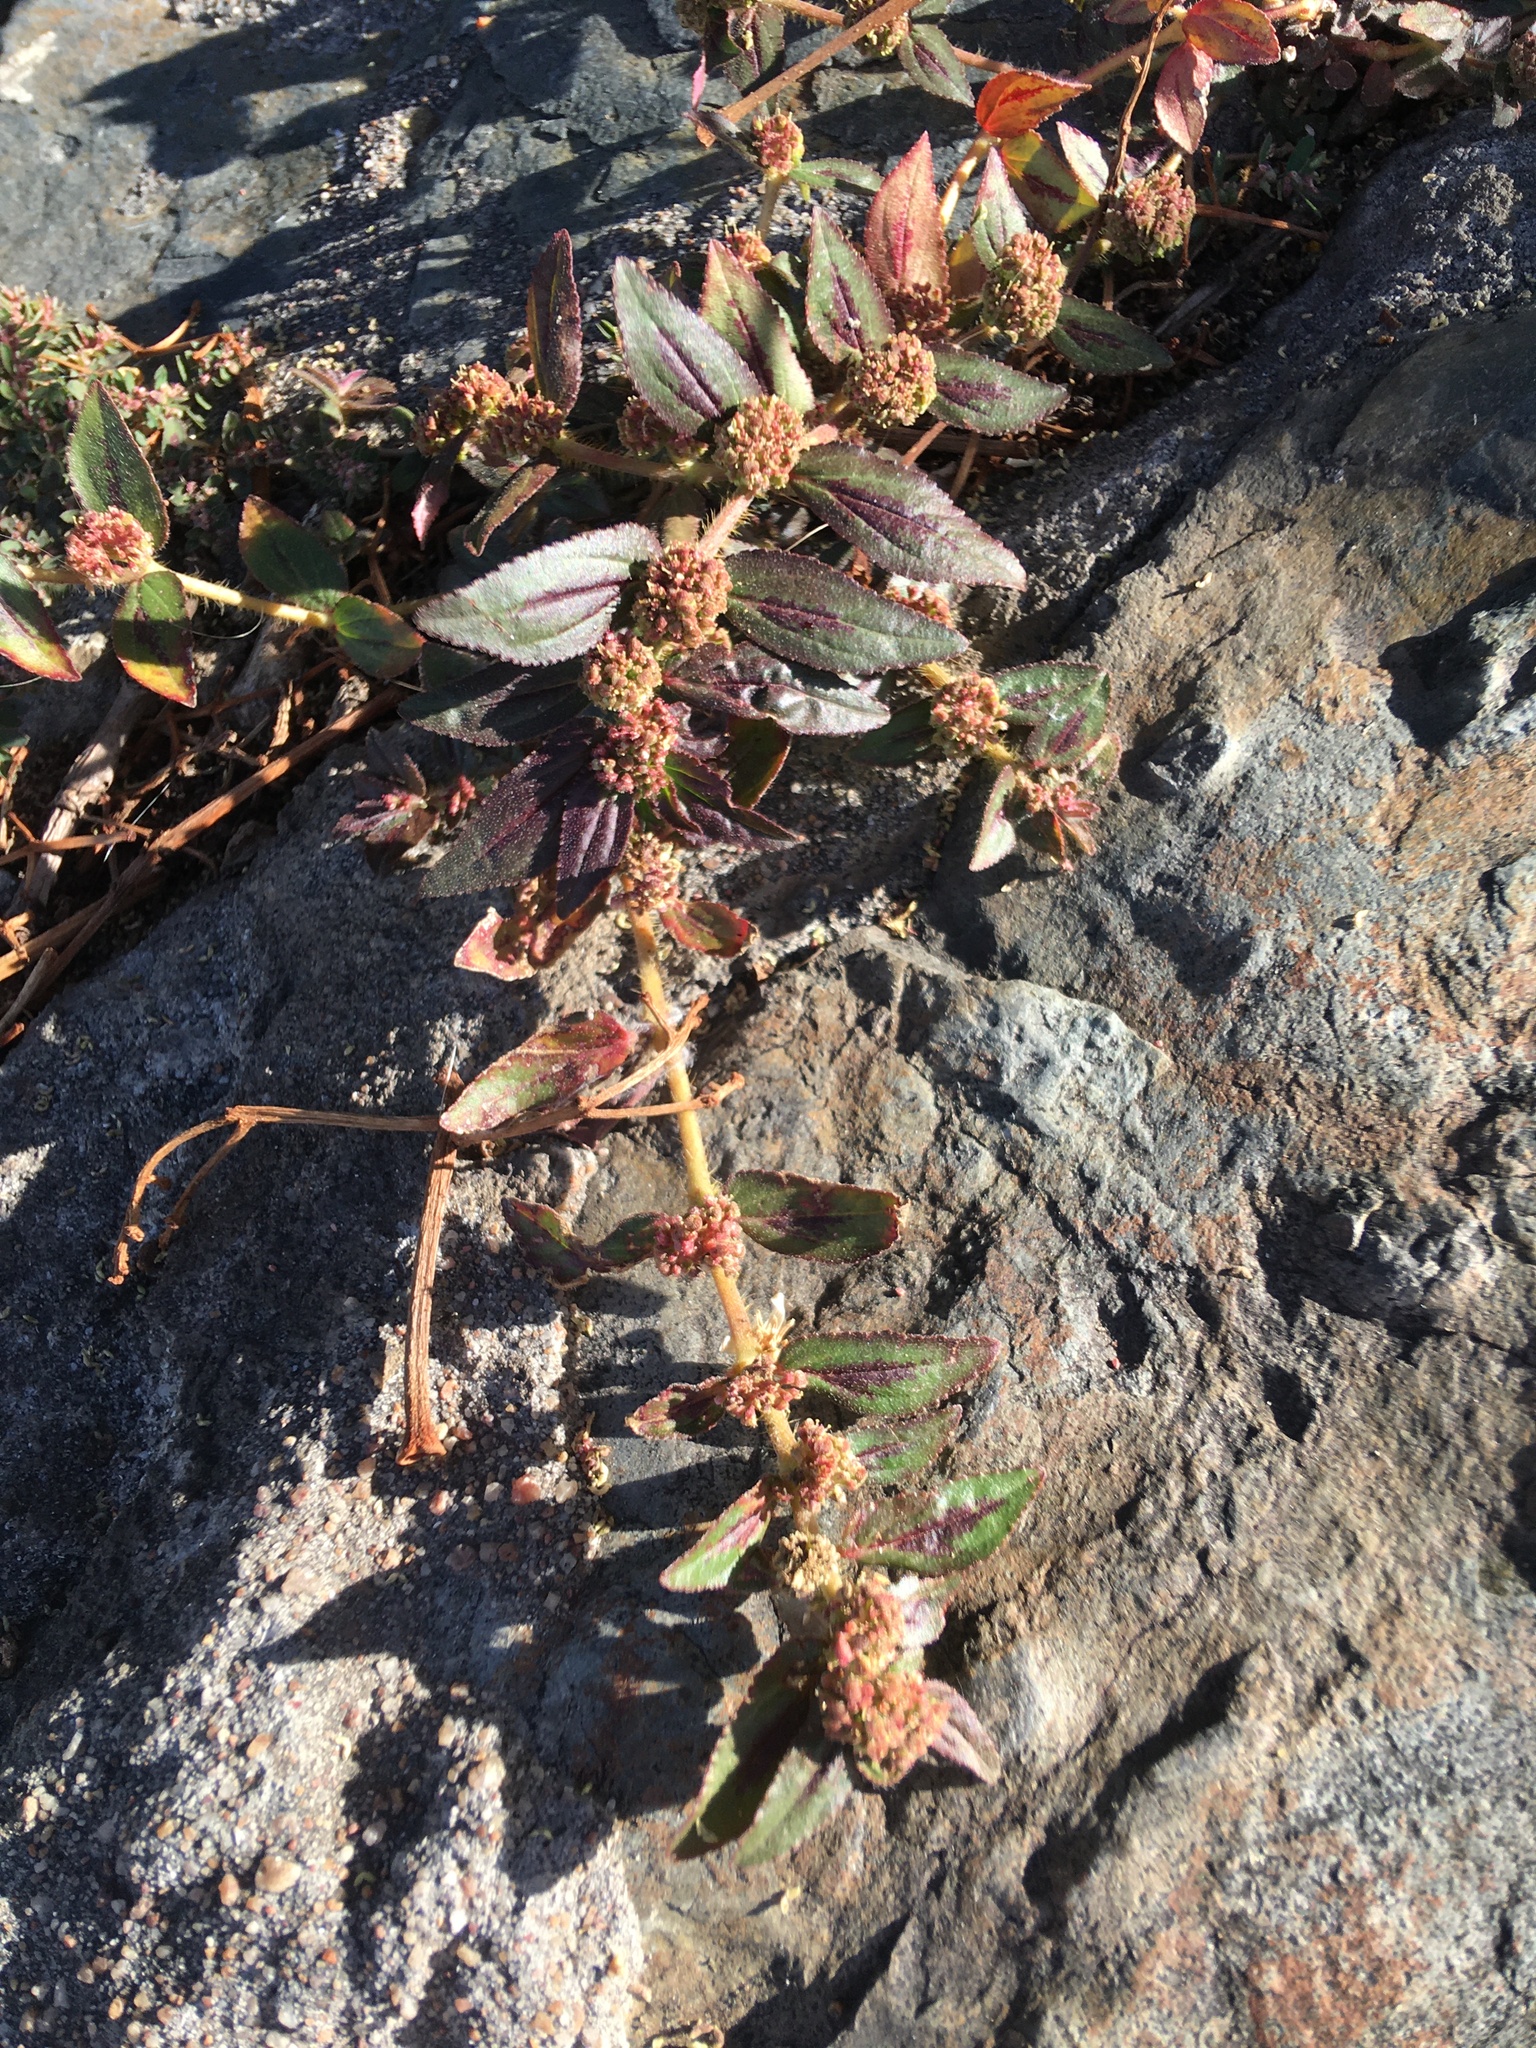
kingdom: Plantae
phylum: Tracheophyta
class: Magnoliopsida
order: Malpighiales
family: Euphorbiaceae
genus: Euphorbia
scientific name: Euphorbia hirta
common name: Pillpod sandmat
